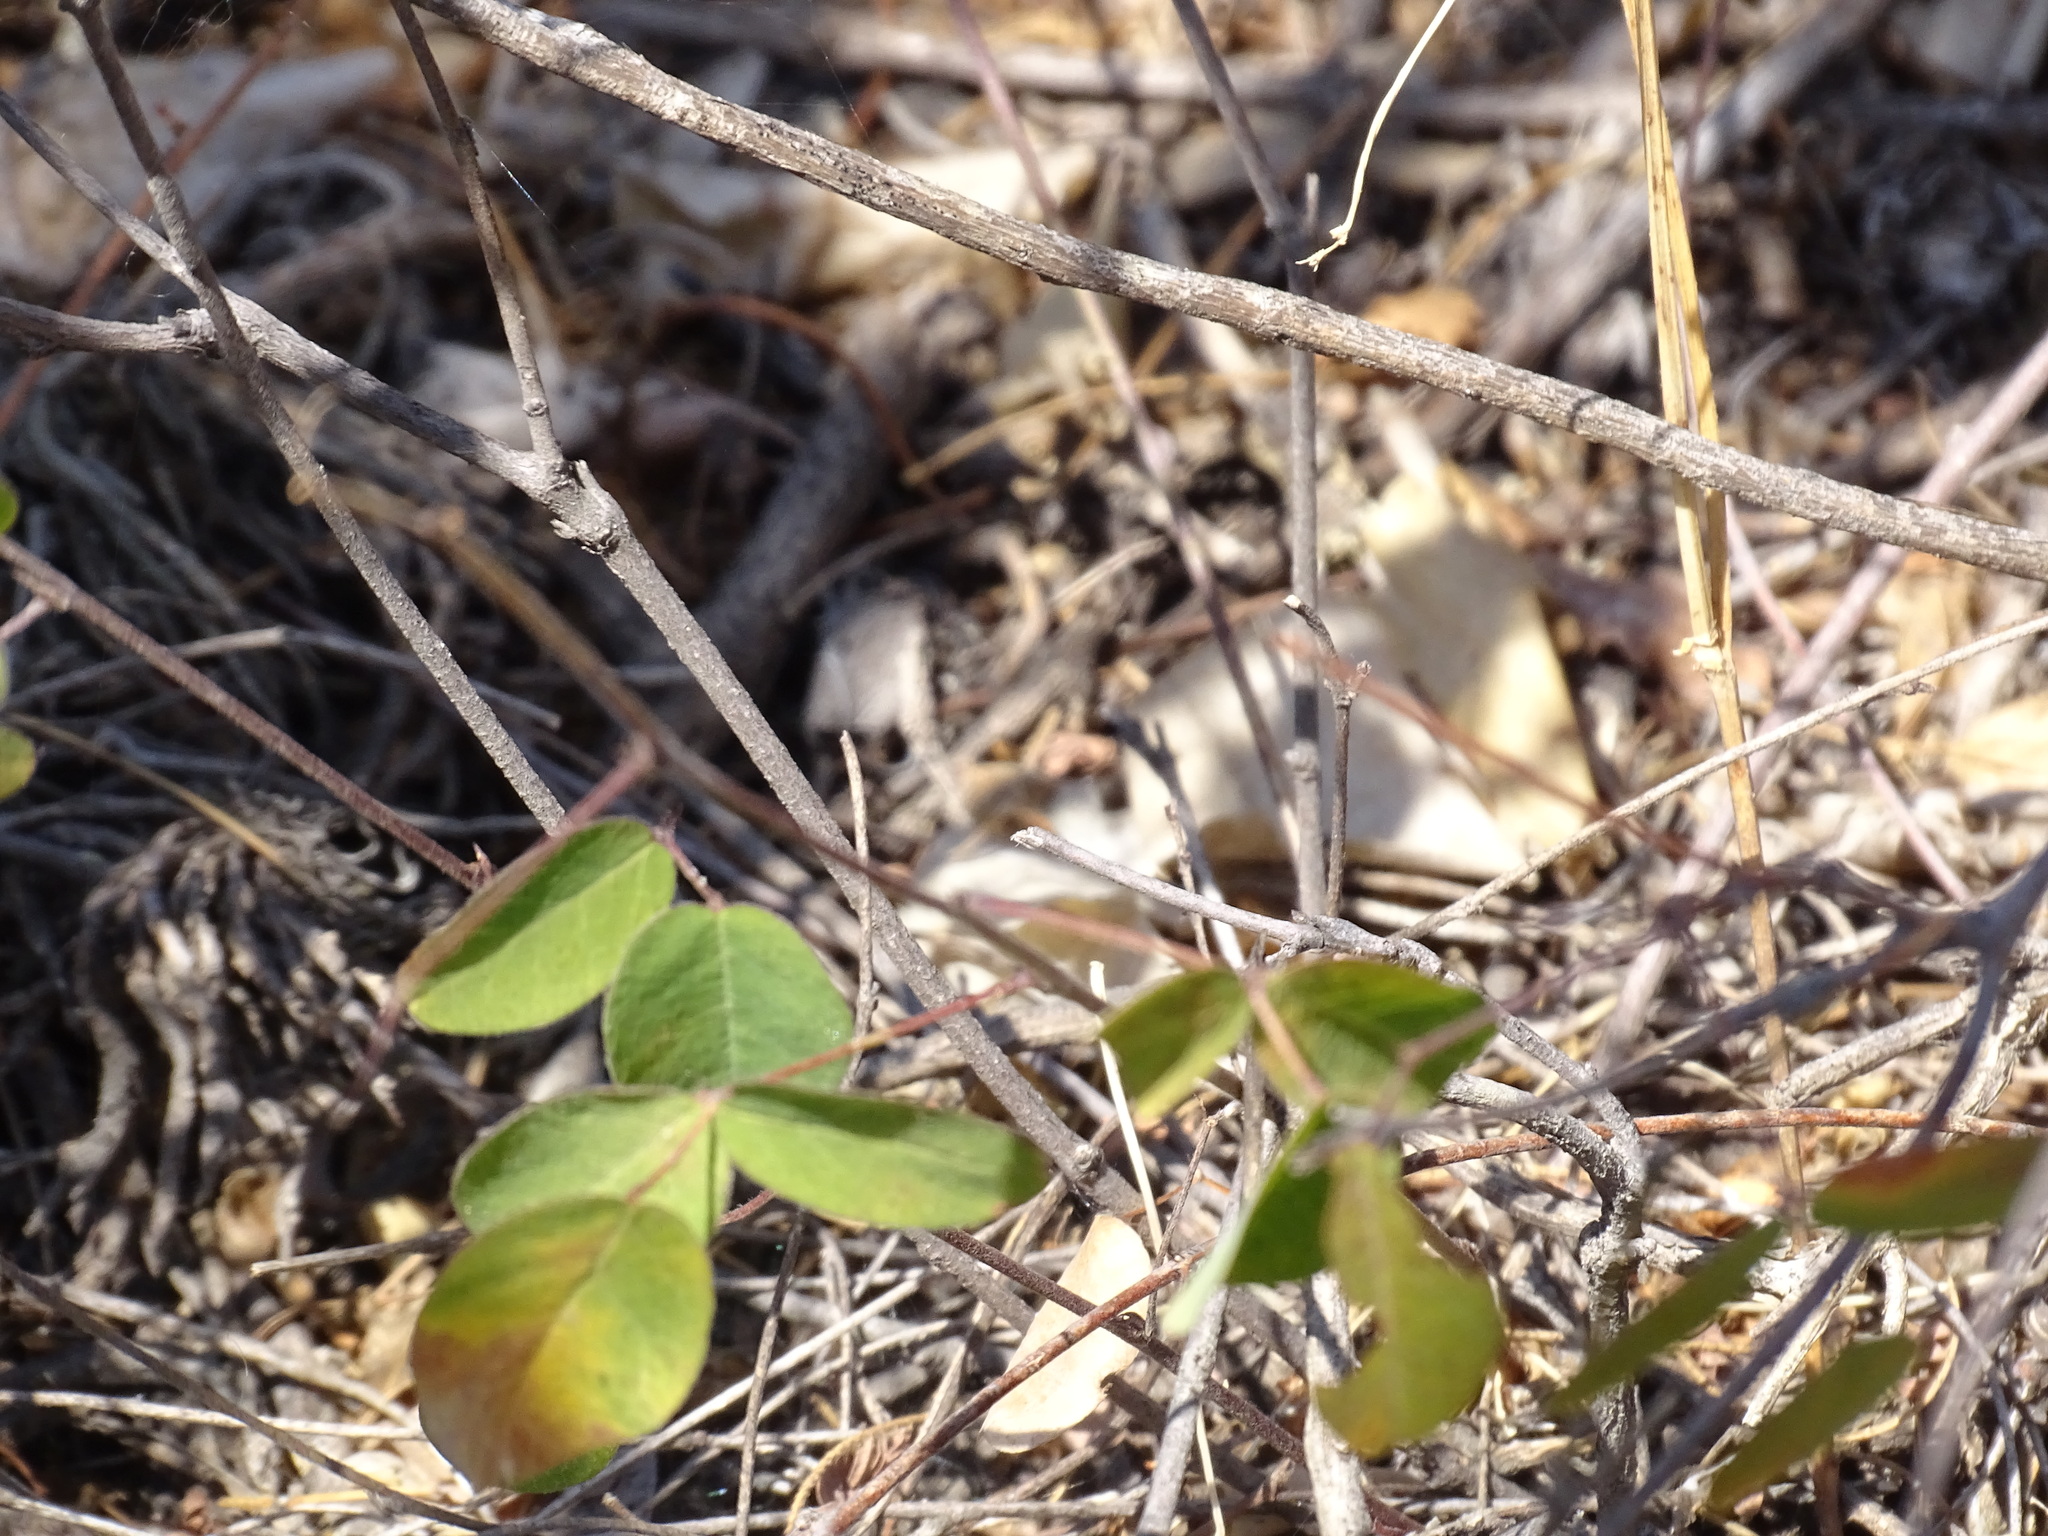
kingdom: Plantae
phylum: Tracheophyta
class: Magnoliopsida
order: Fabales
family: Fabaceae
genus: Nanogalactia
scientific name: Nanogalactia brachystachys
